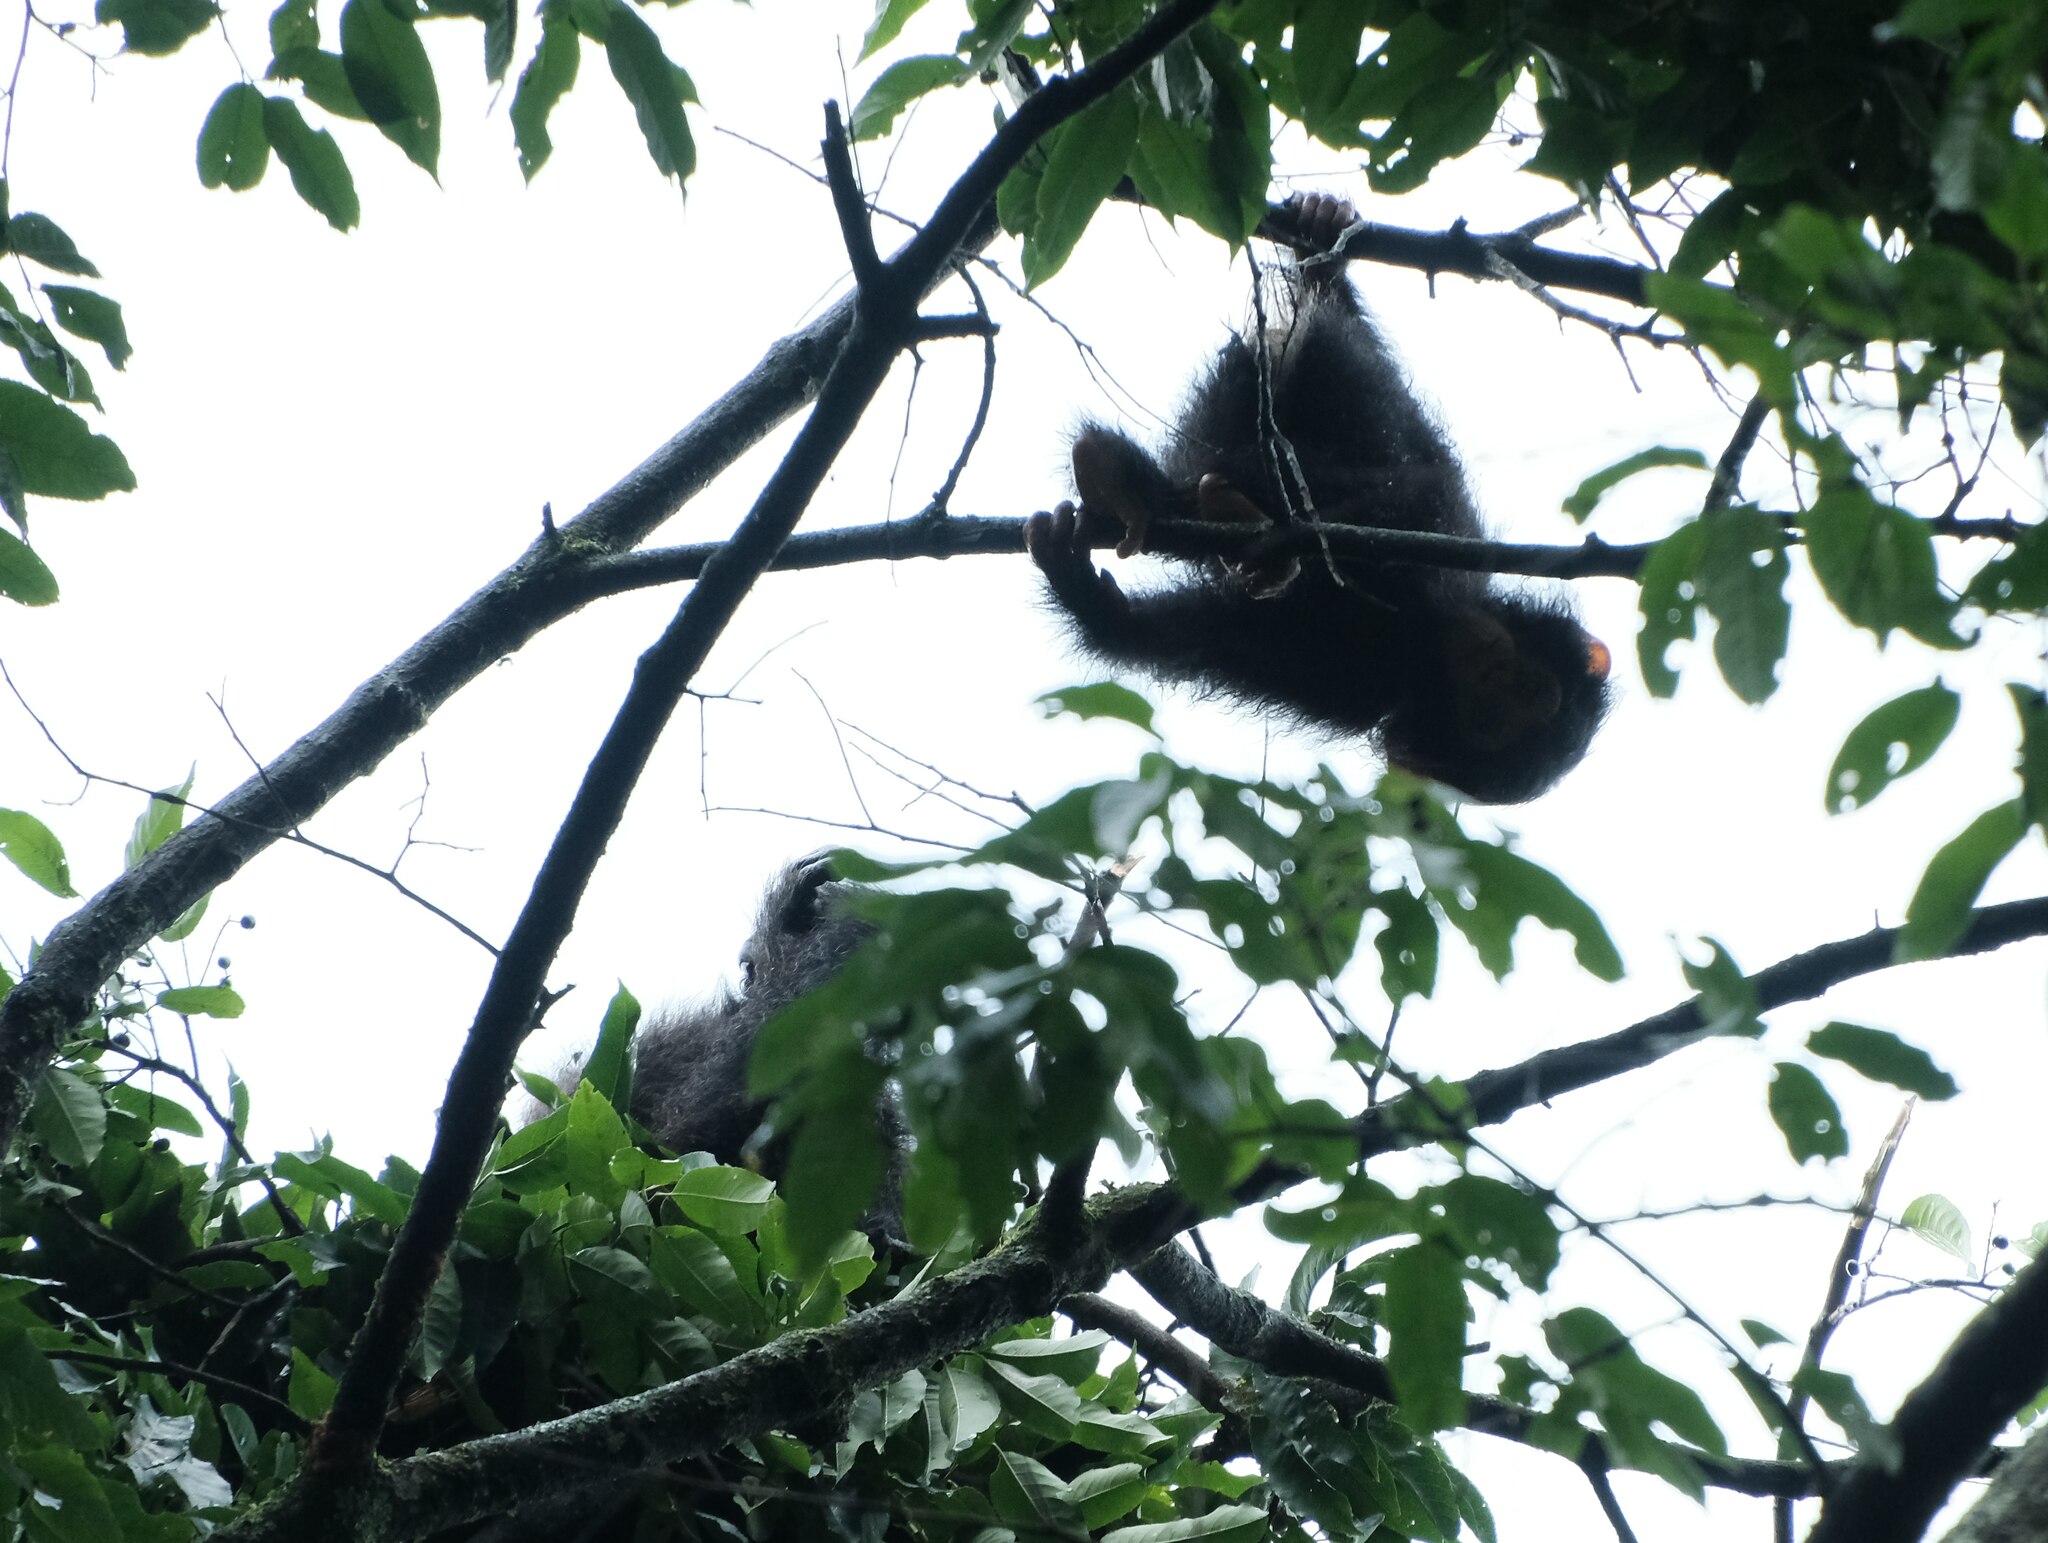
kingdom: Animalia
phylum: Chordata
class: Mammalia
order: Primates
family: Hominidae
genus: Pan
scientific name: Pan troglodytes
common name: Chimpanzee
